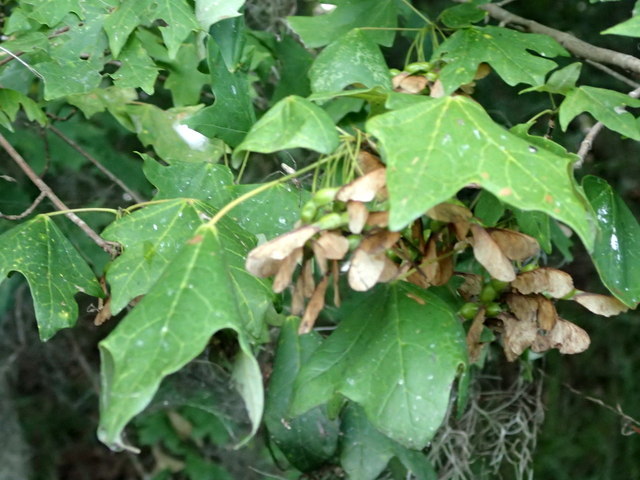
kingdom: Plantae
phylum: Tracheophyta
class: Magnoliopsida
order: Sapindales
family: Sapindaceae
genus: Acer
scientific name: Acer floridanum
